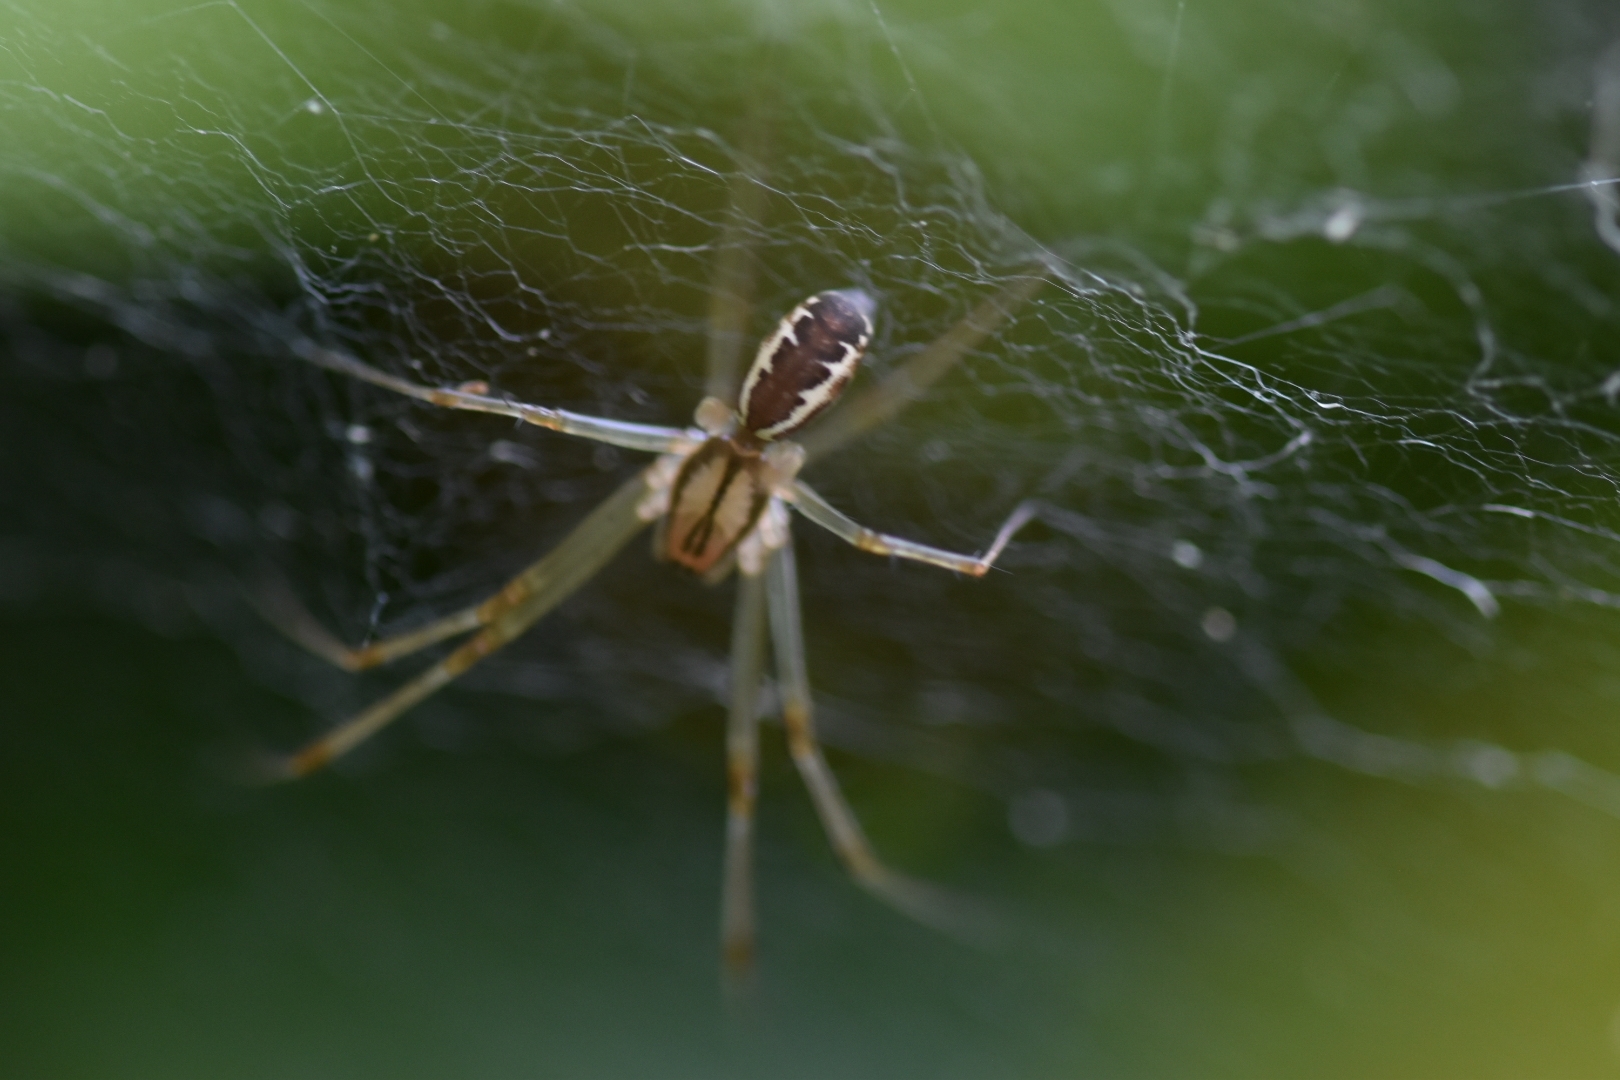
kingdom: Animalia
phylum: Arthropoda
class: Arachnida
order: Araneae
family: Linyphiidae
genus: Linyphia
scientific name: Linyphia triangularis
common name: Money spider
